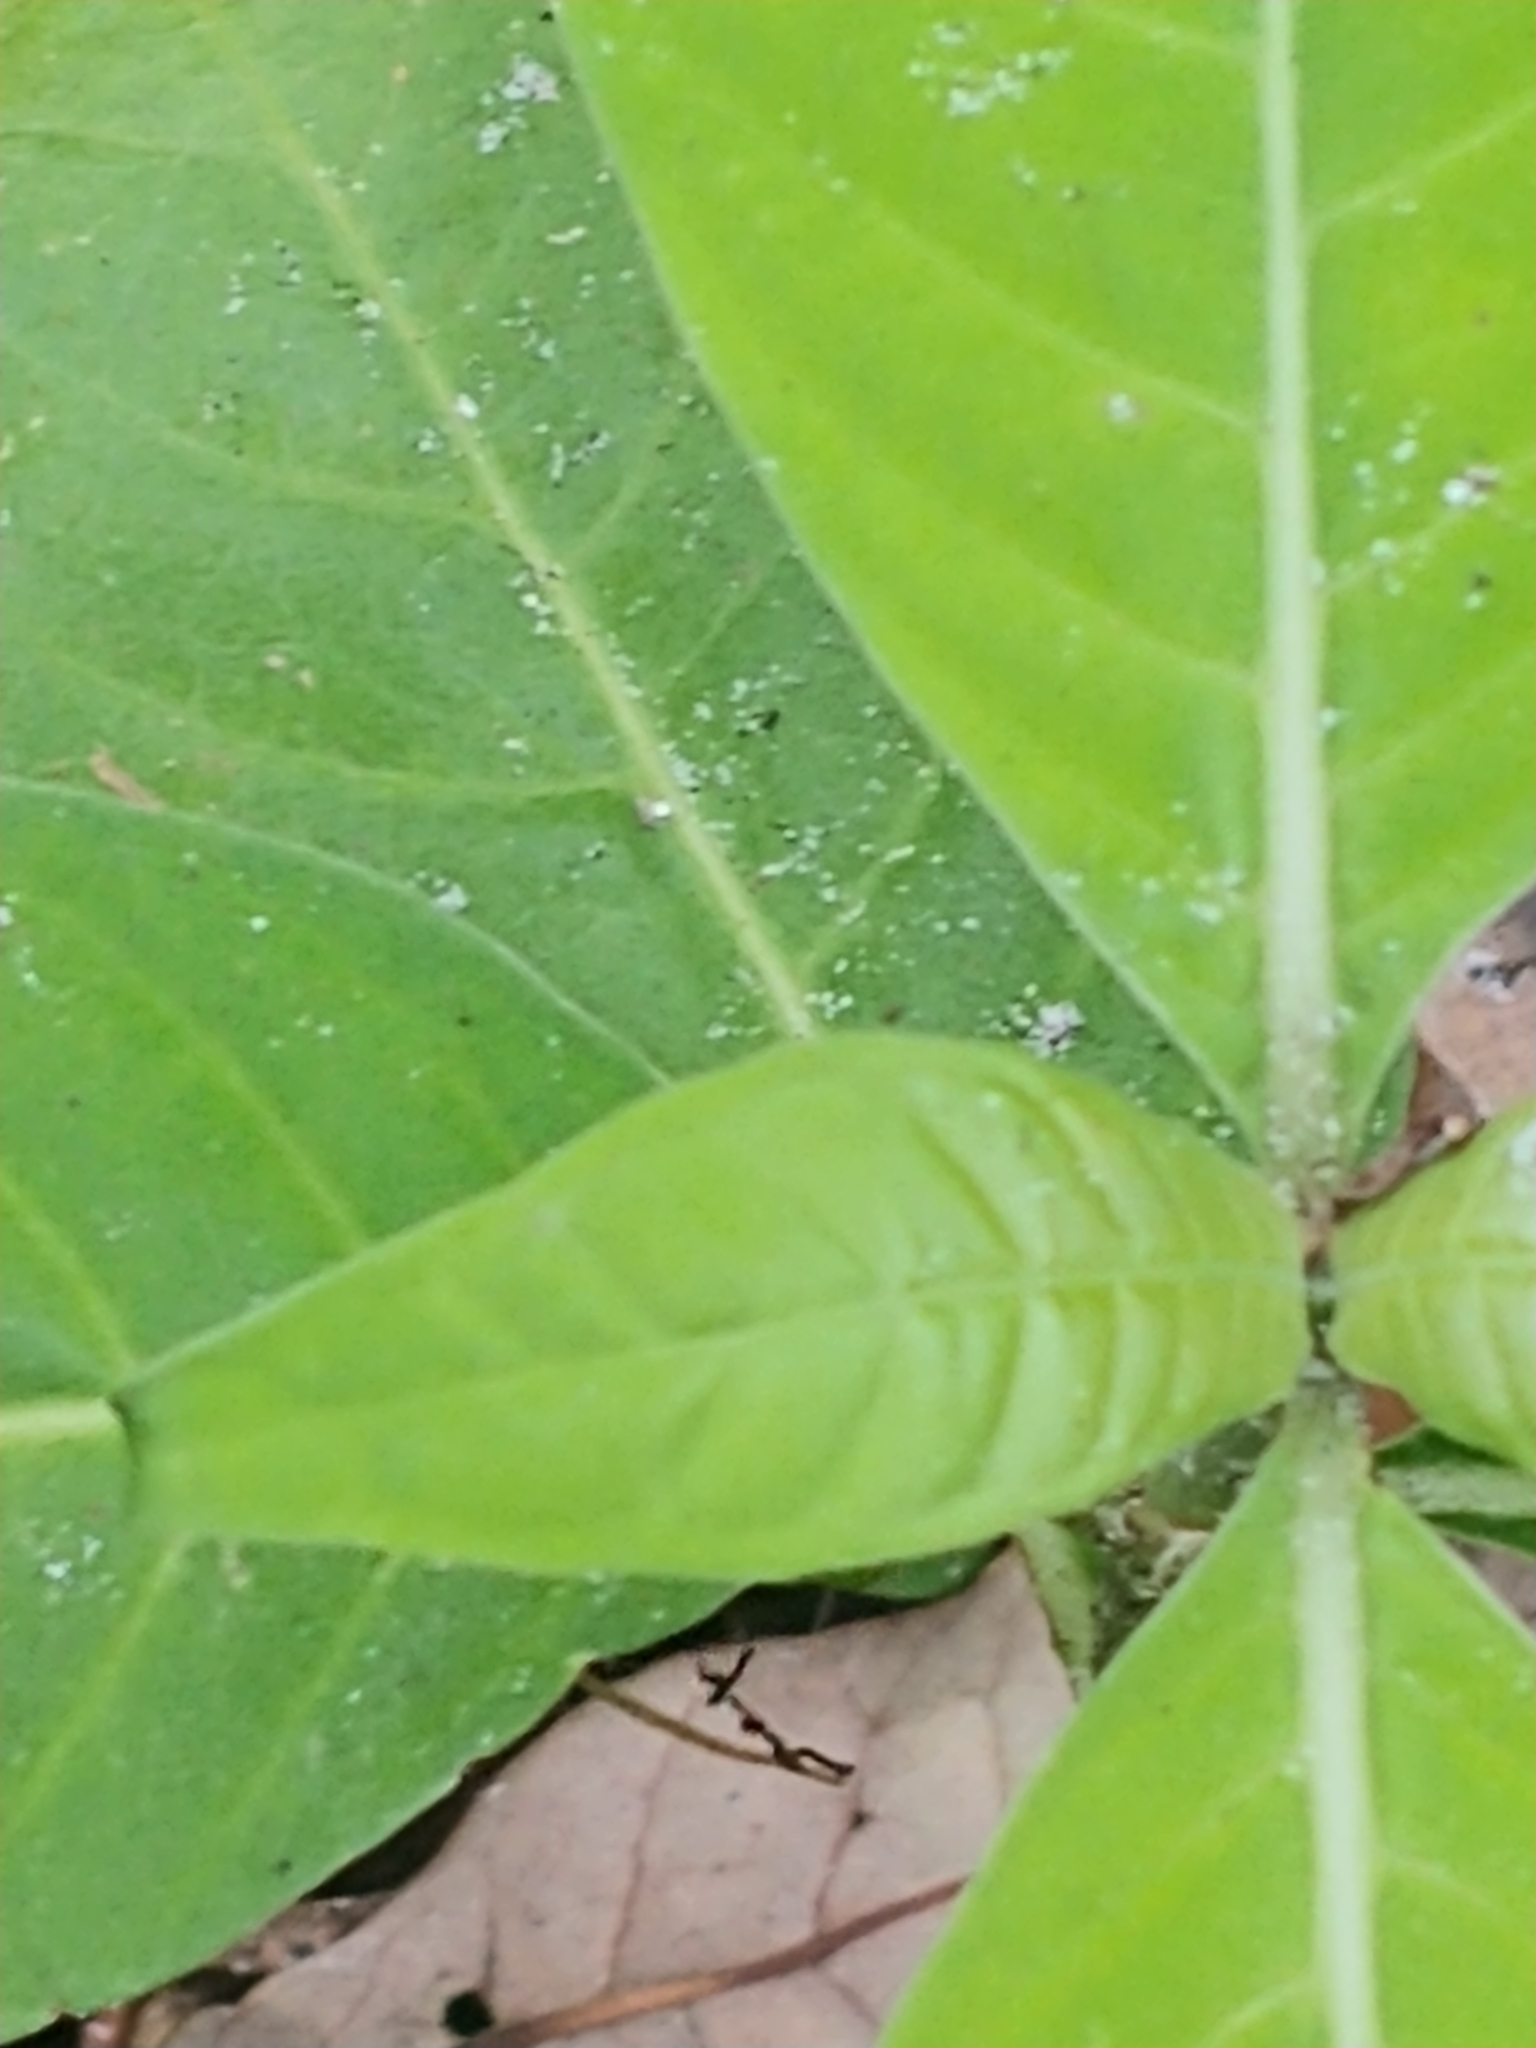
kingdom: Plantae
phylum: Tracheophyta
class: Magnoliopsida
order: Gentianales
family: Rubiaceae
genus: Psychotria
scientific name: Psychotria tenuifolia
